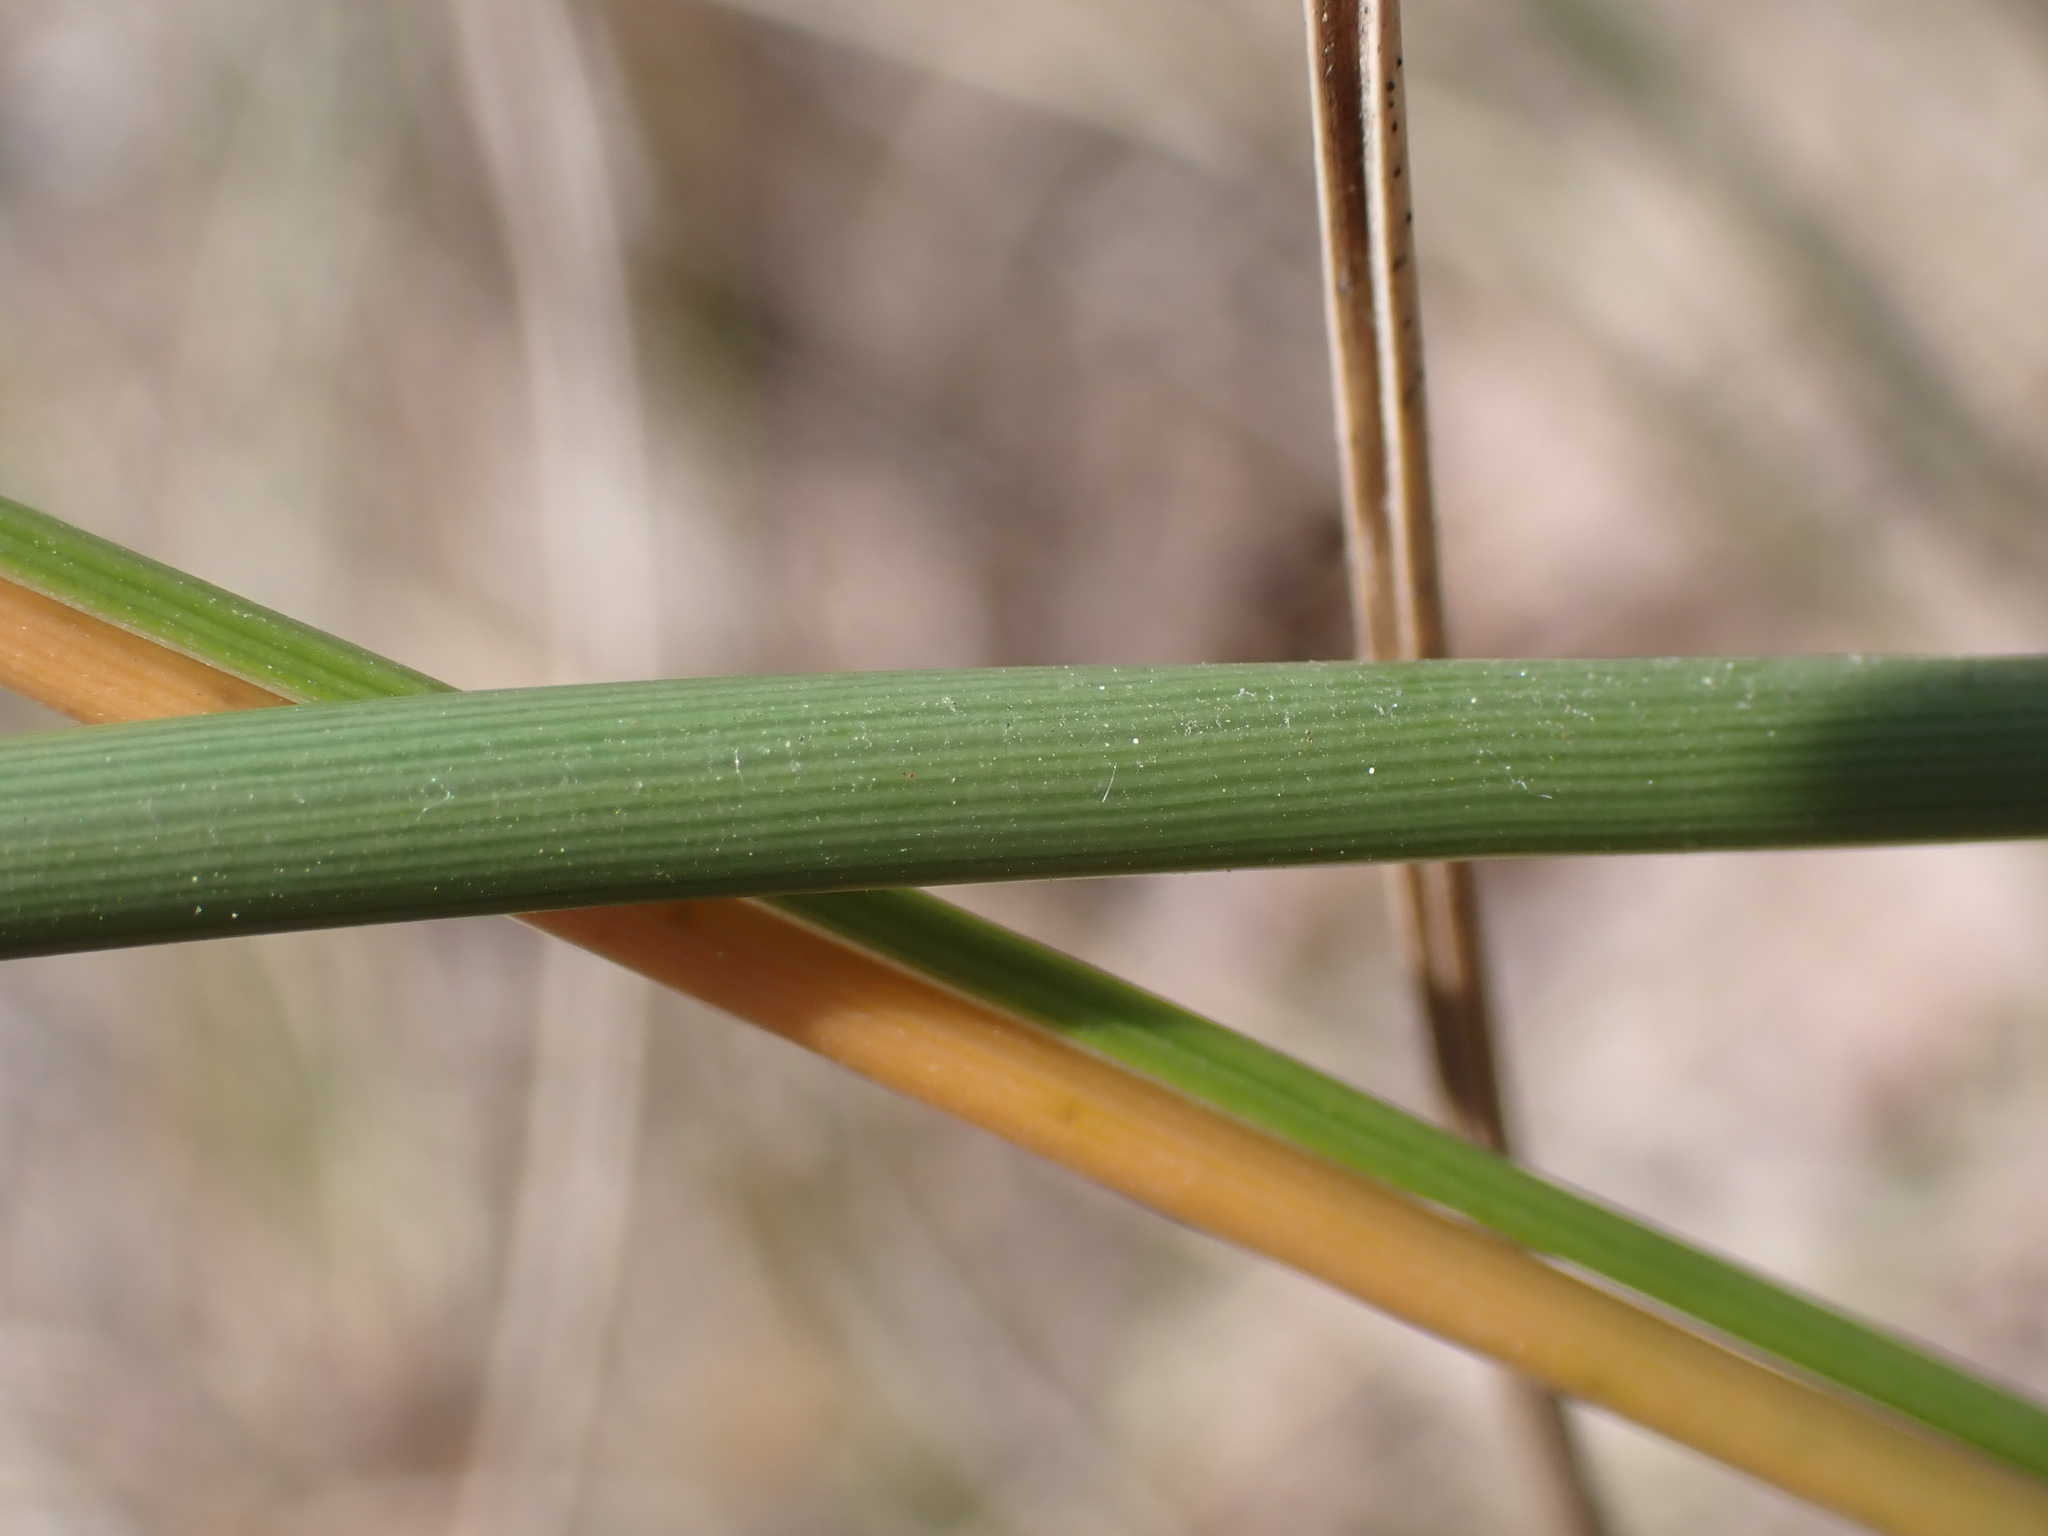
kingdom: Plantae
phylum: Tracheophyta
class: Liliopsida
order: Poales
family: Poaceae
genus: Calamagrostis
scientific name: Calamagrostis arenaria
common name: European beachgrass
